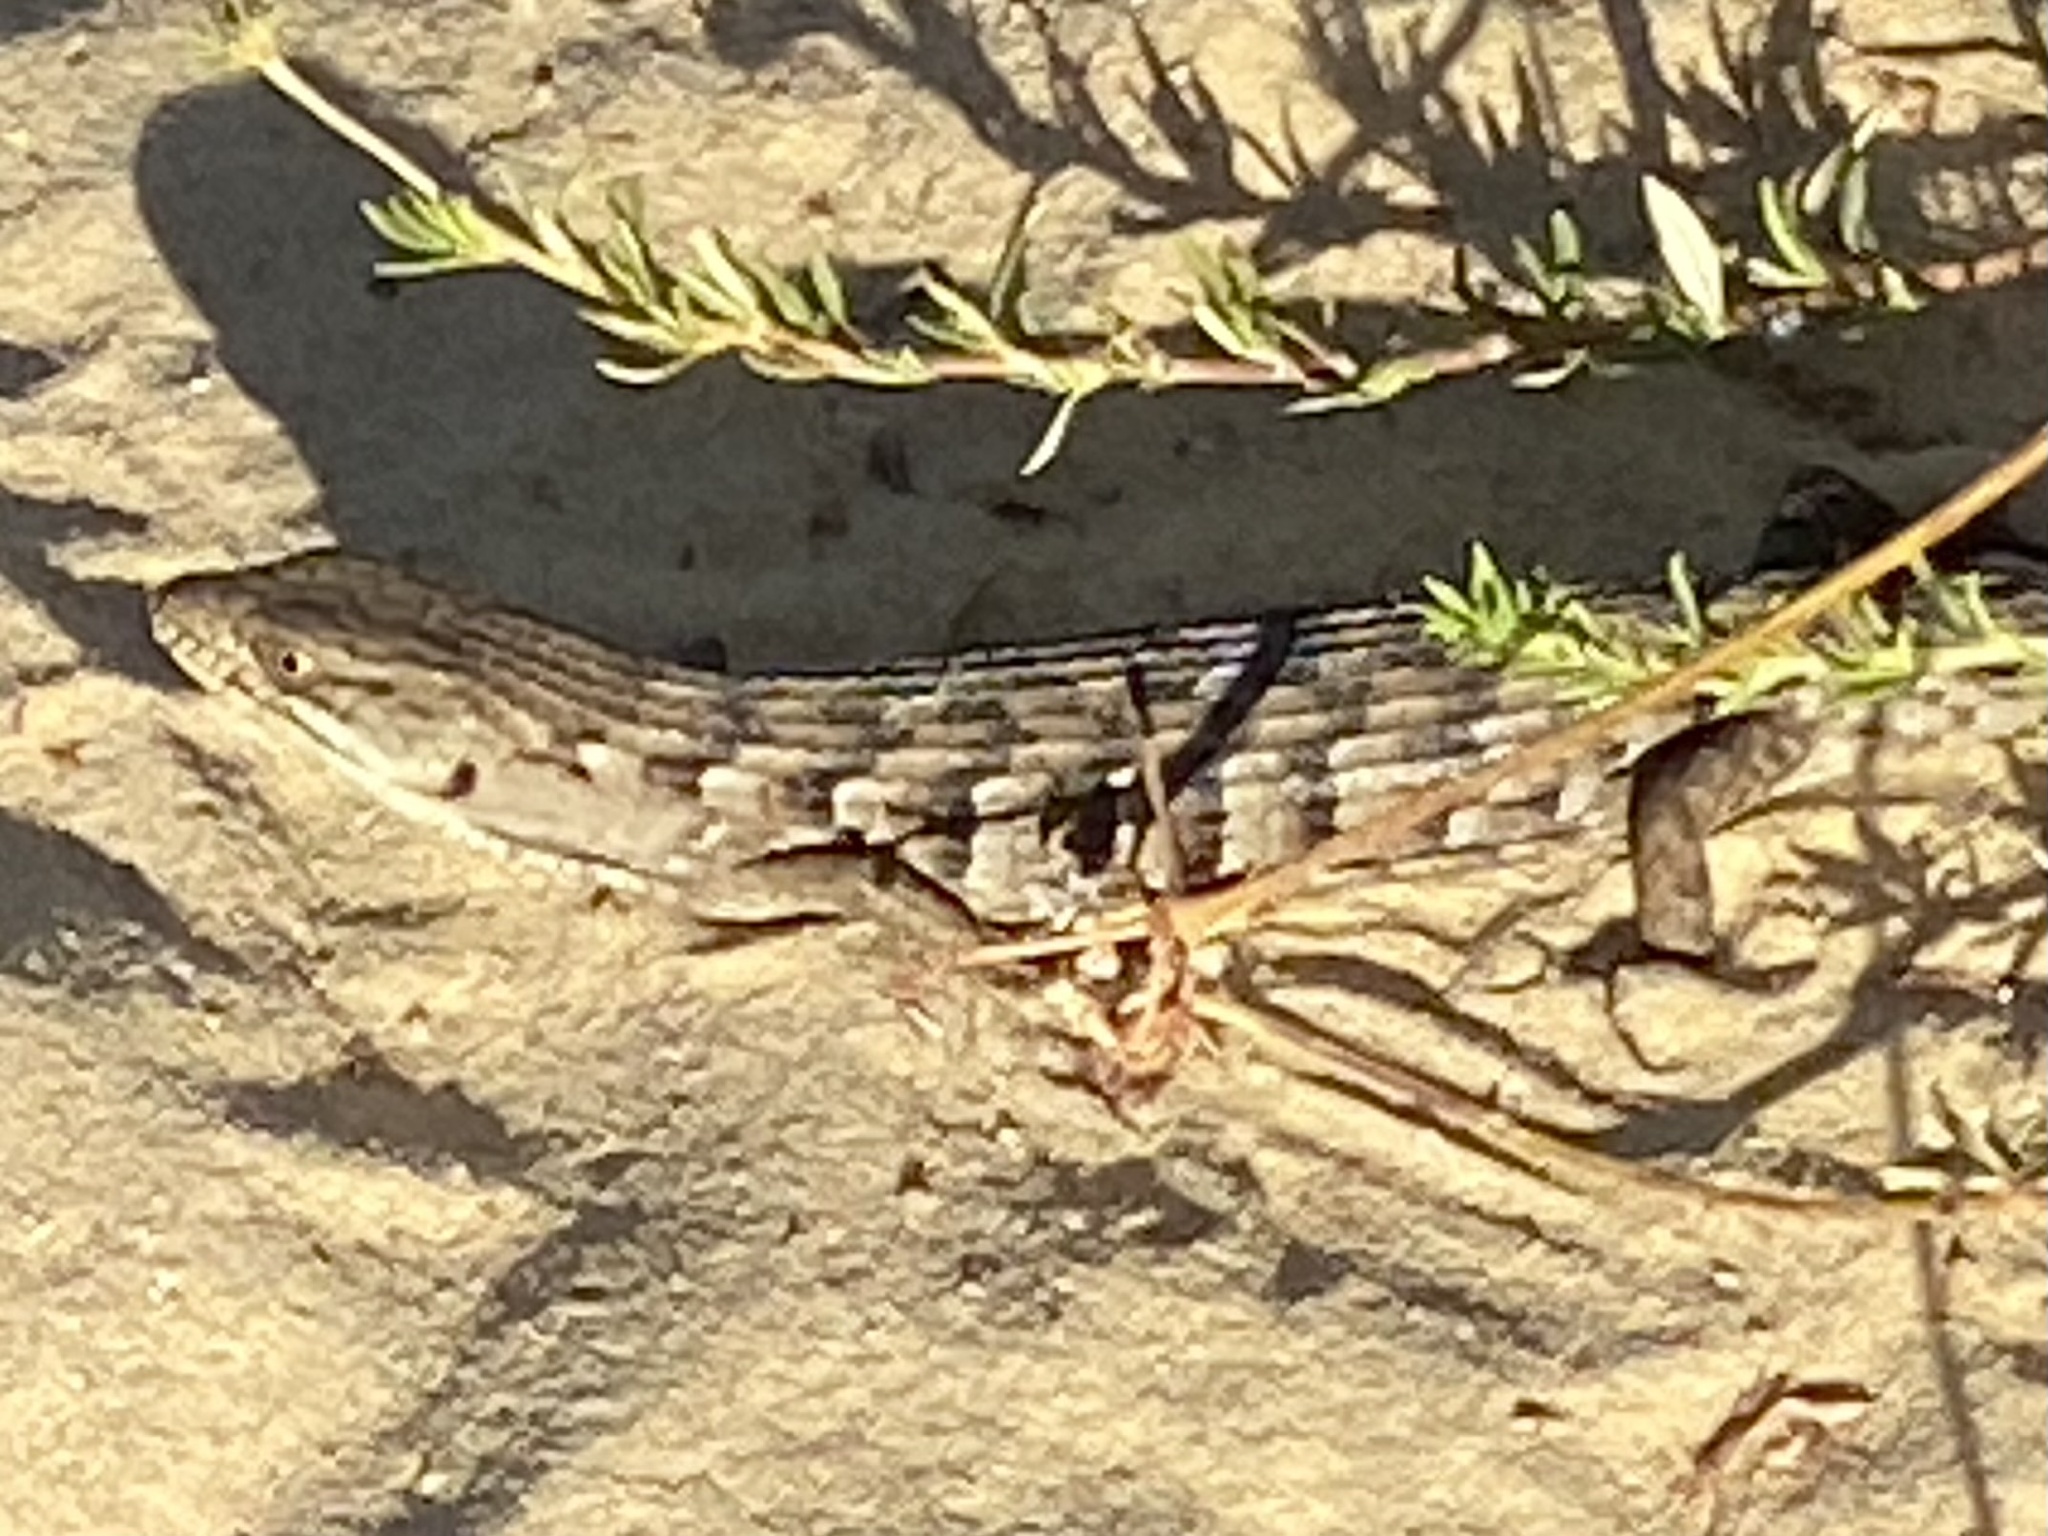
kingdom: Animalia
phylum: Chordata
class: Squamata
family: Anguidae
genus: Elgaria
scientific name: Elgaria multicarinata
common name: Southern alligator lizard
